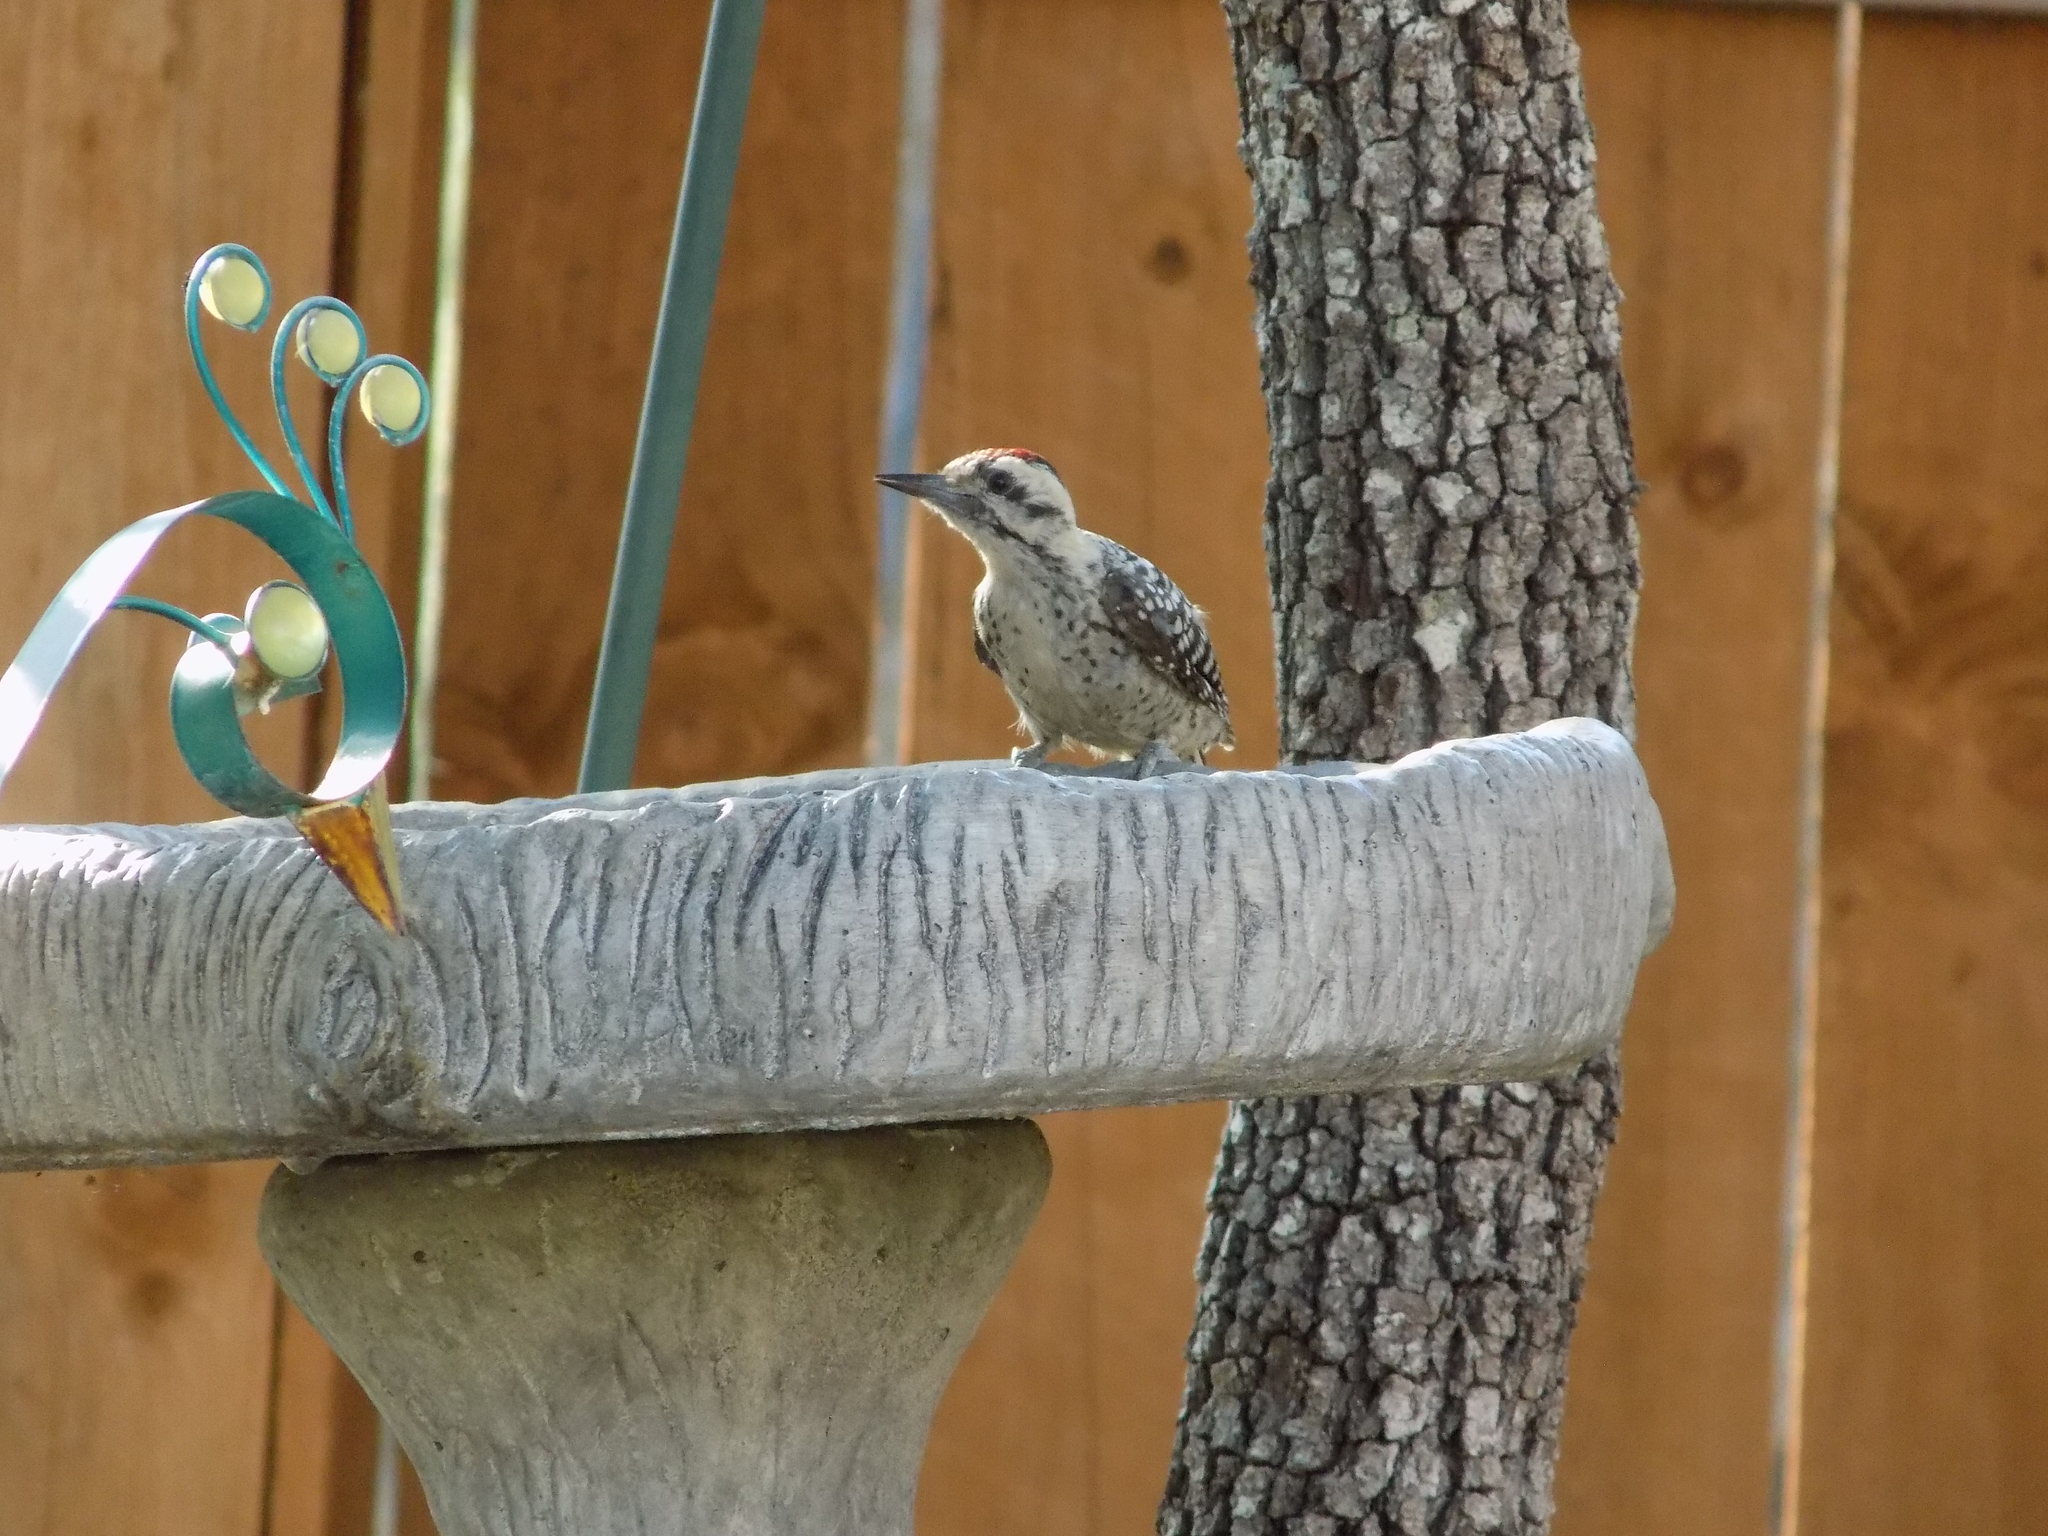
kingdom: Animalia
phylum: Chordata
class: Aves
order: Piciformes
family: Picidae
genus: Dryobates
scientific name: Dryobates scalaris
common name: Ladder-backed woodpecker
